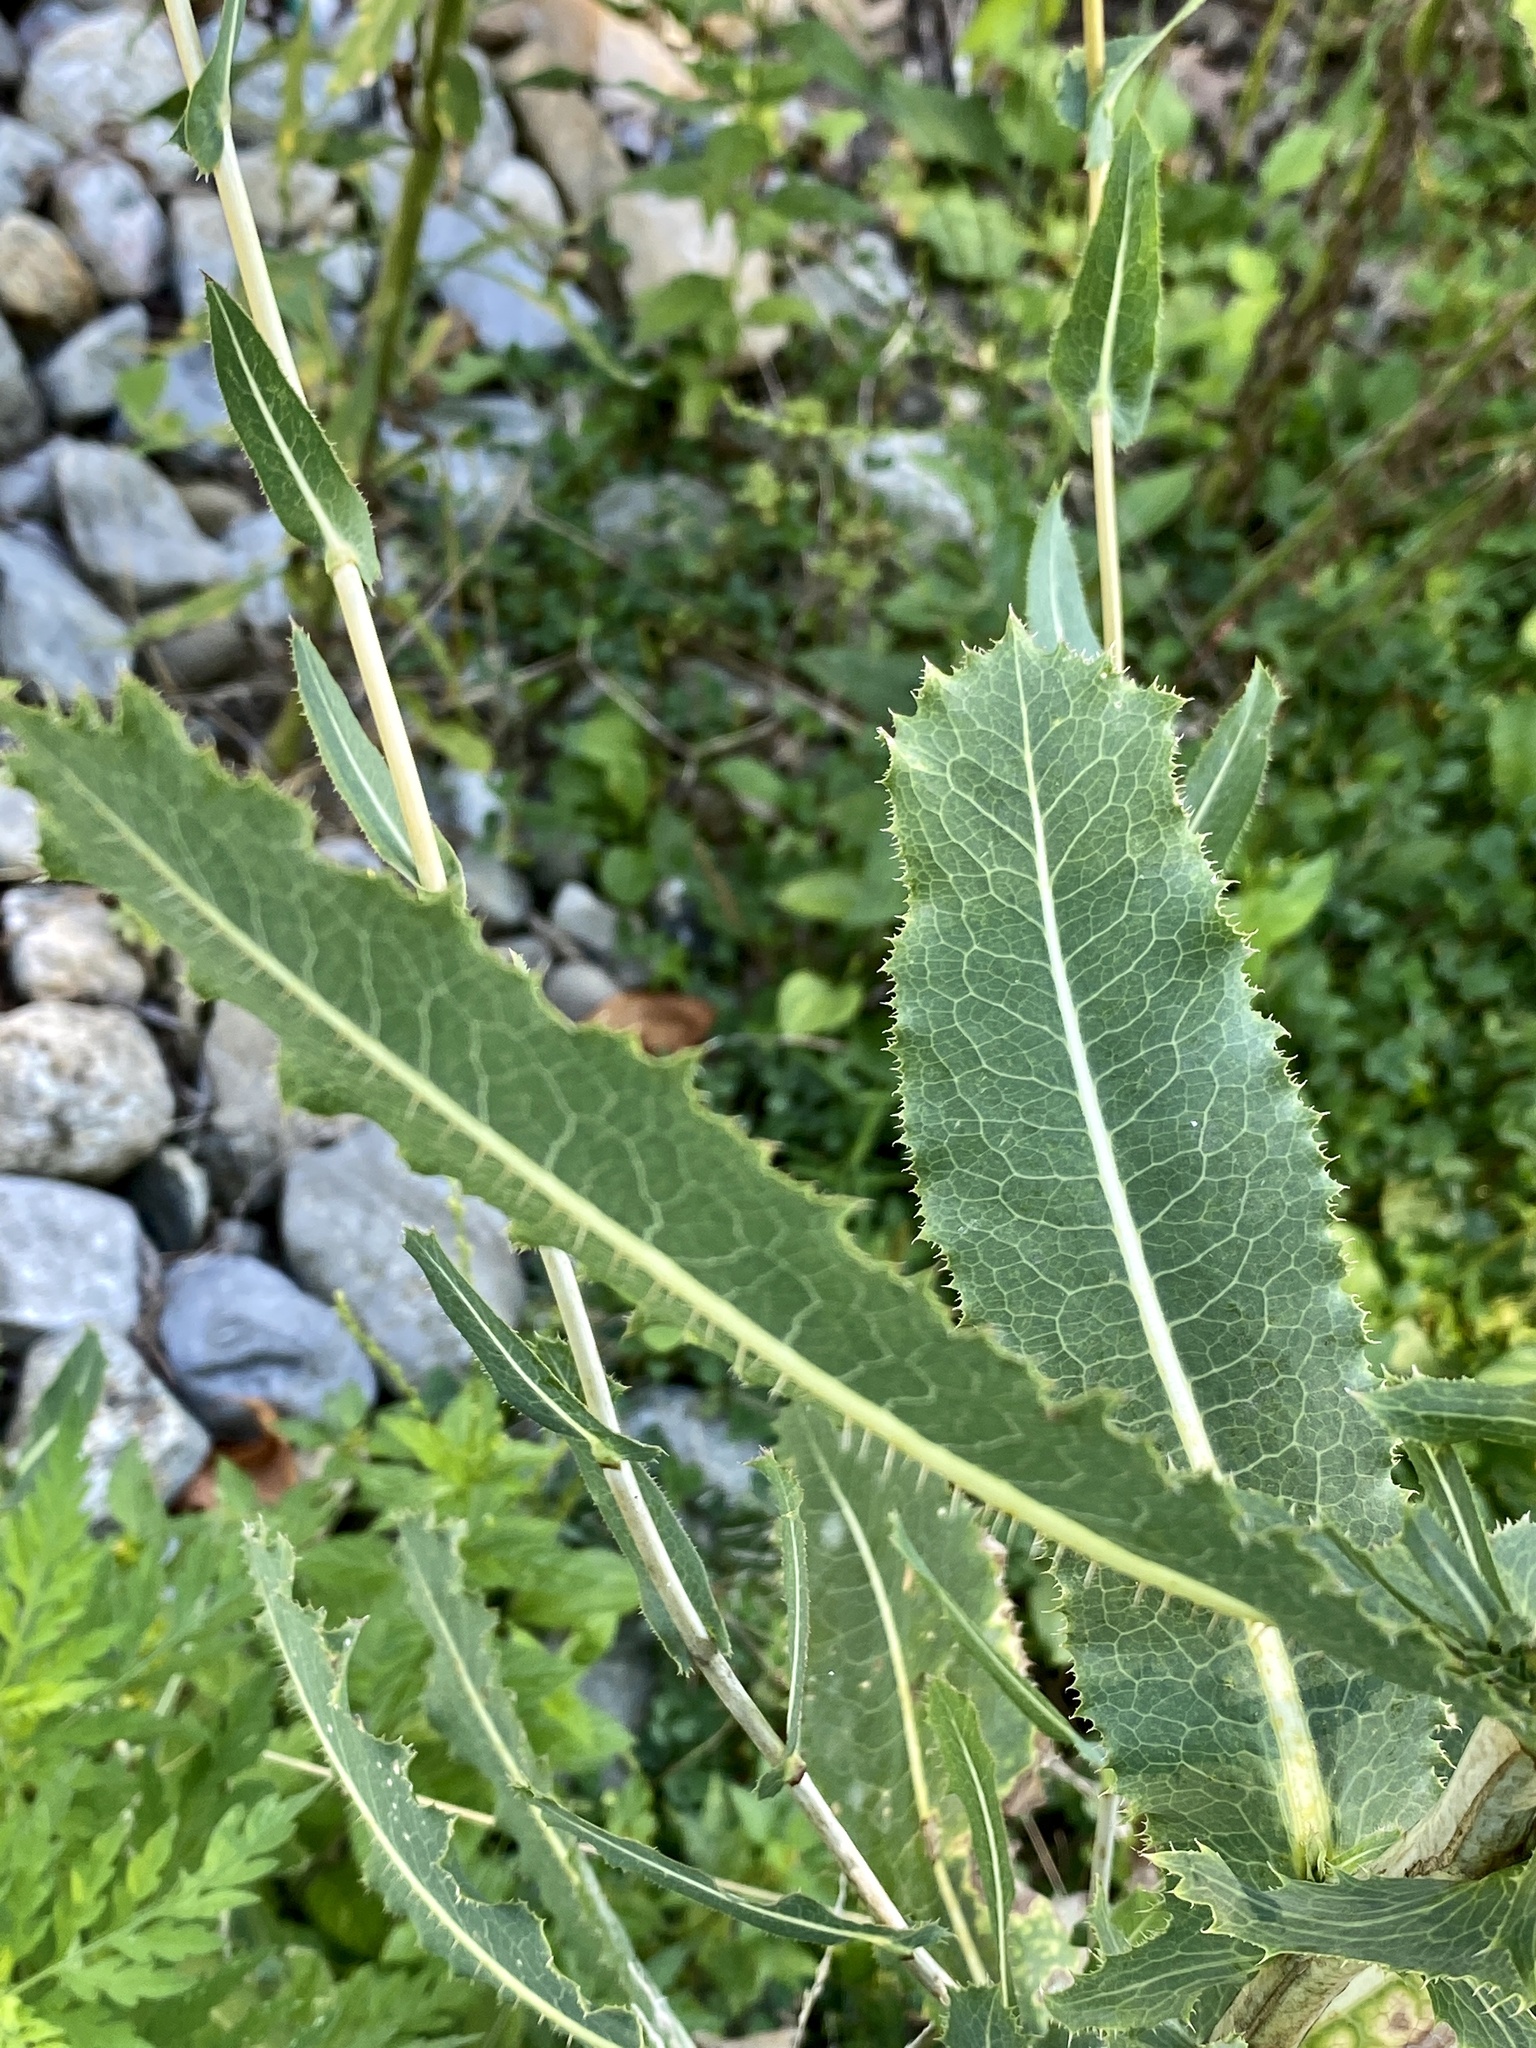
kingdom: Plantae
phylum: Tracheophyta
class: Magnoliopsida
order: Asterales
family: Asteraceae
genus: Lactuca
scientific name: Lactuca serriola
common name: Prickly lettuce
